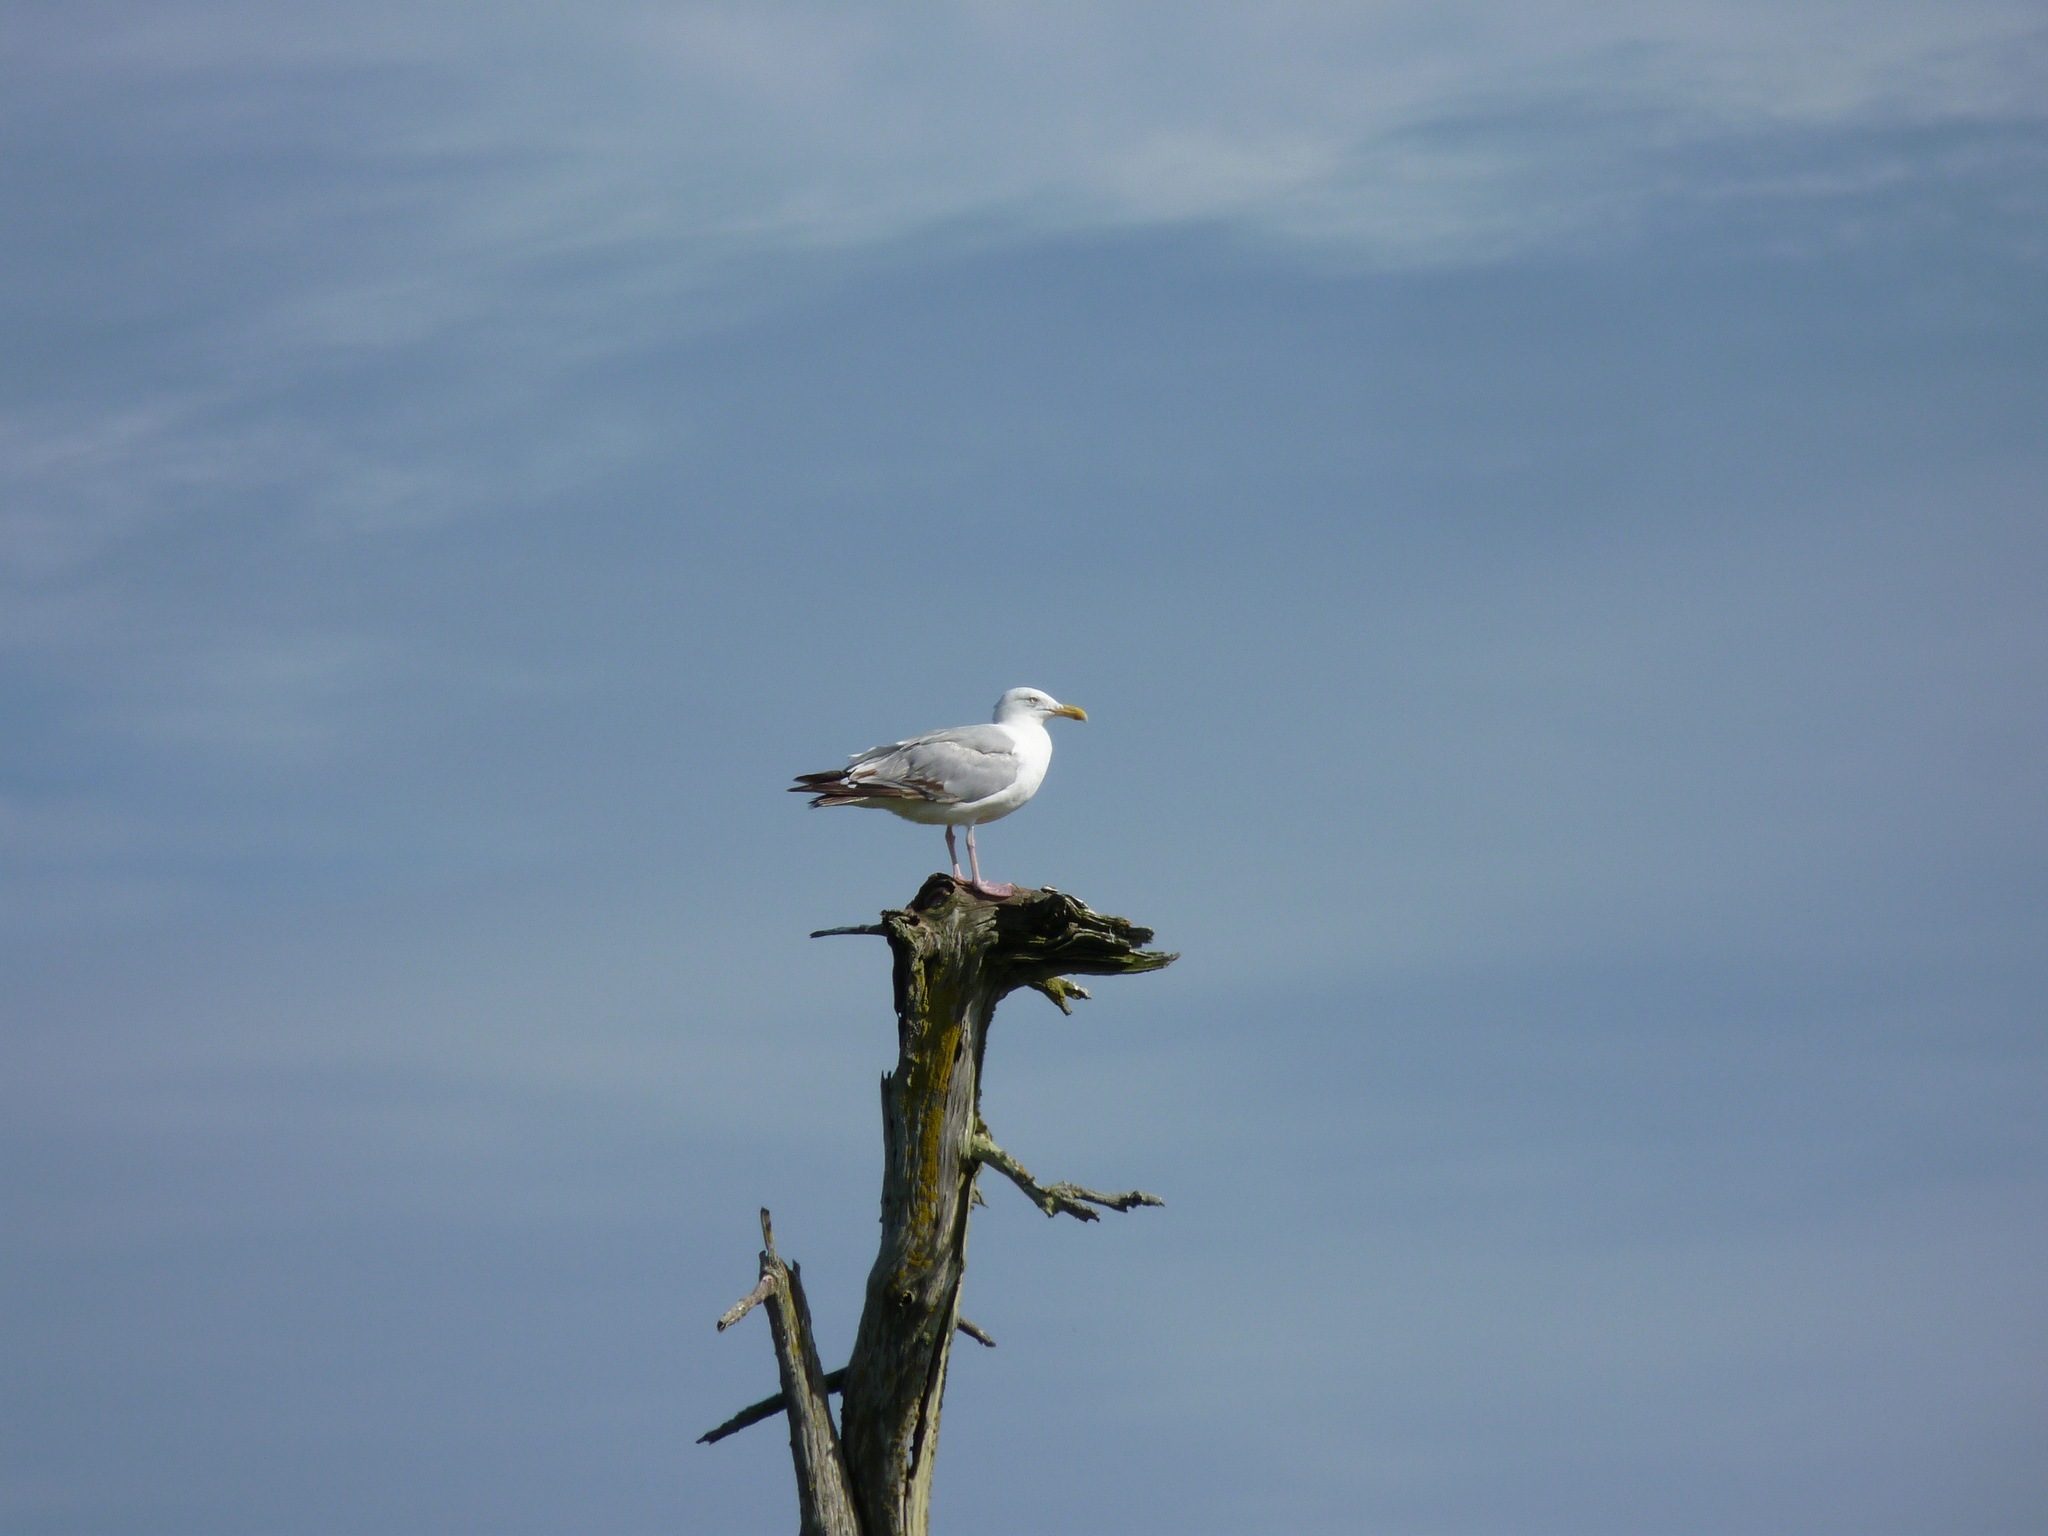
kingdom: Animalia
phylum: Chordata
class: Aves
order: Charadriiformes
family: Laridae
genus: Larus
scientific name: Larus argentatus
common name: Herring gull
